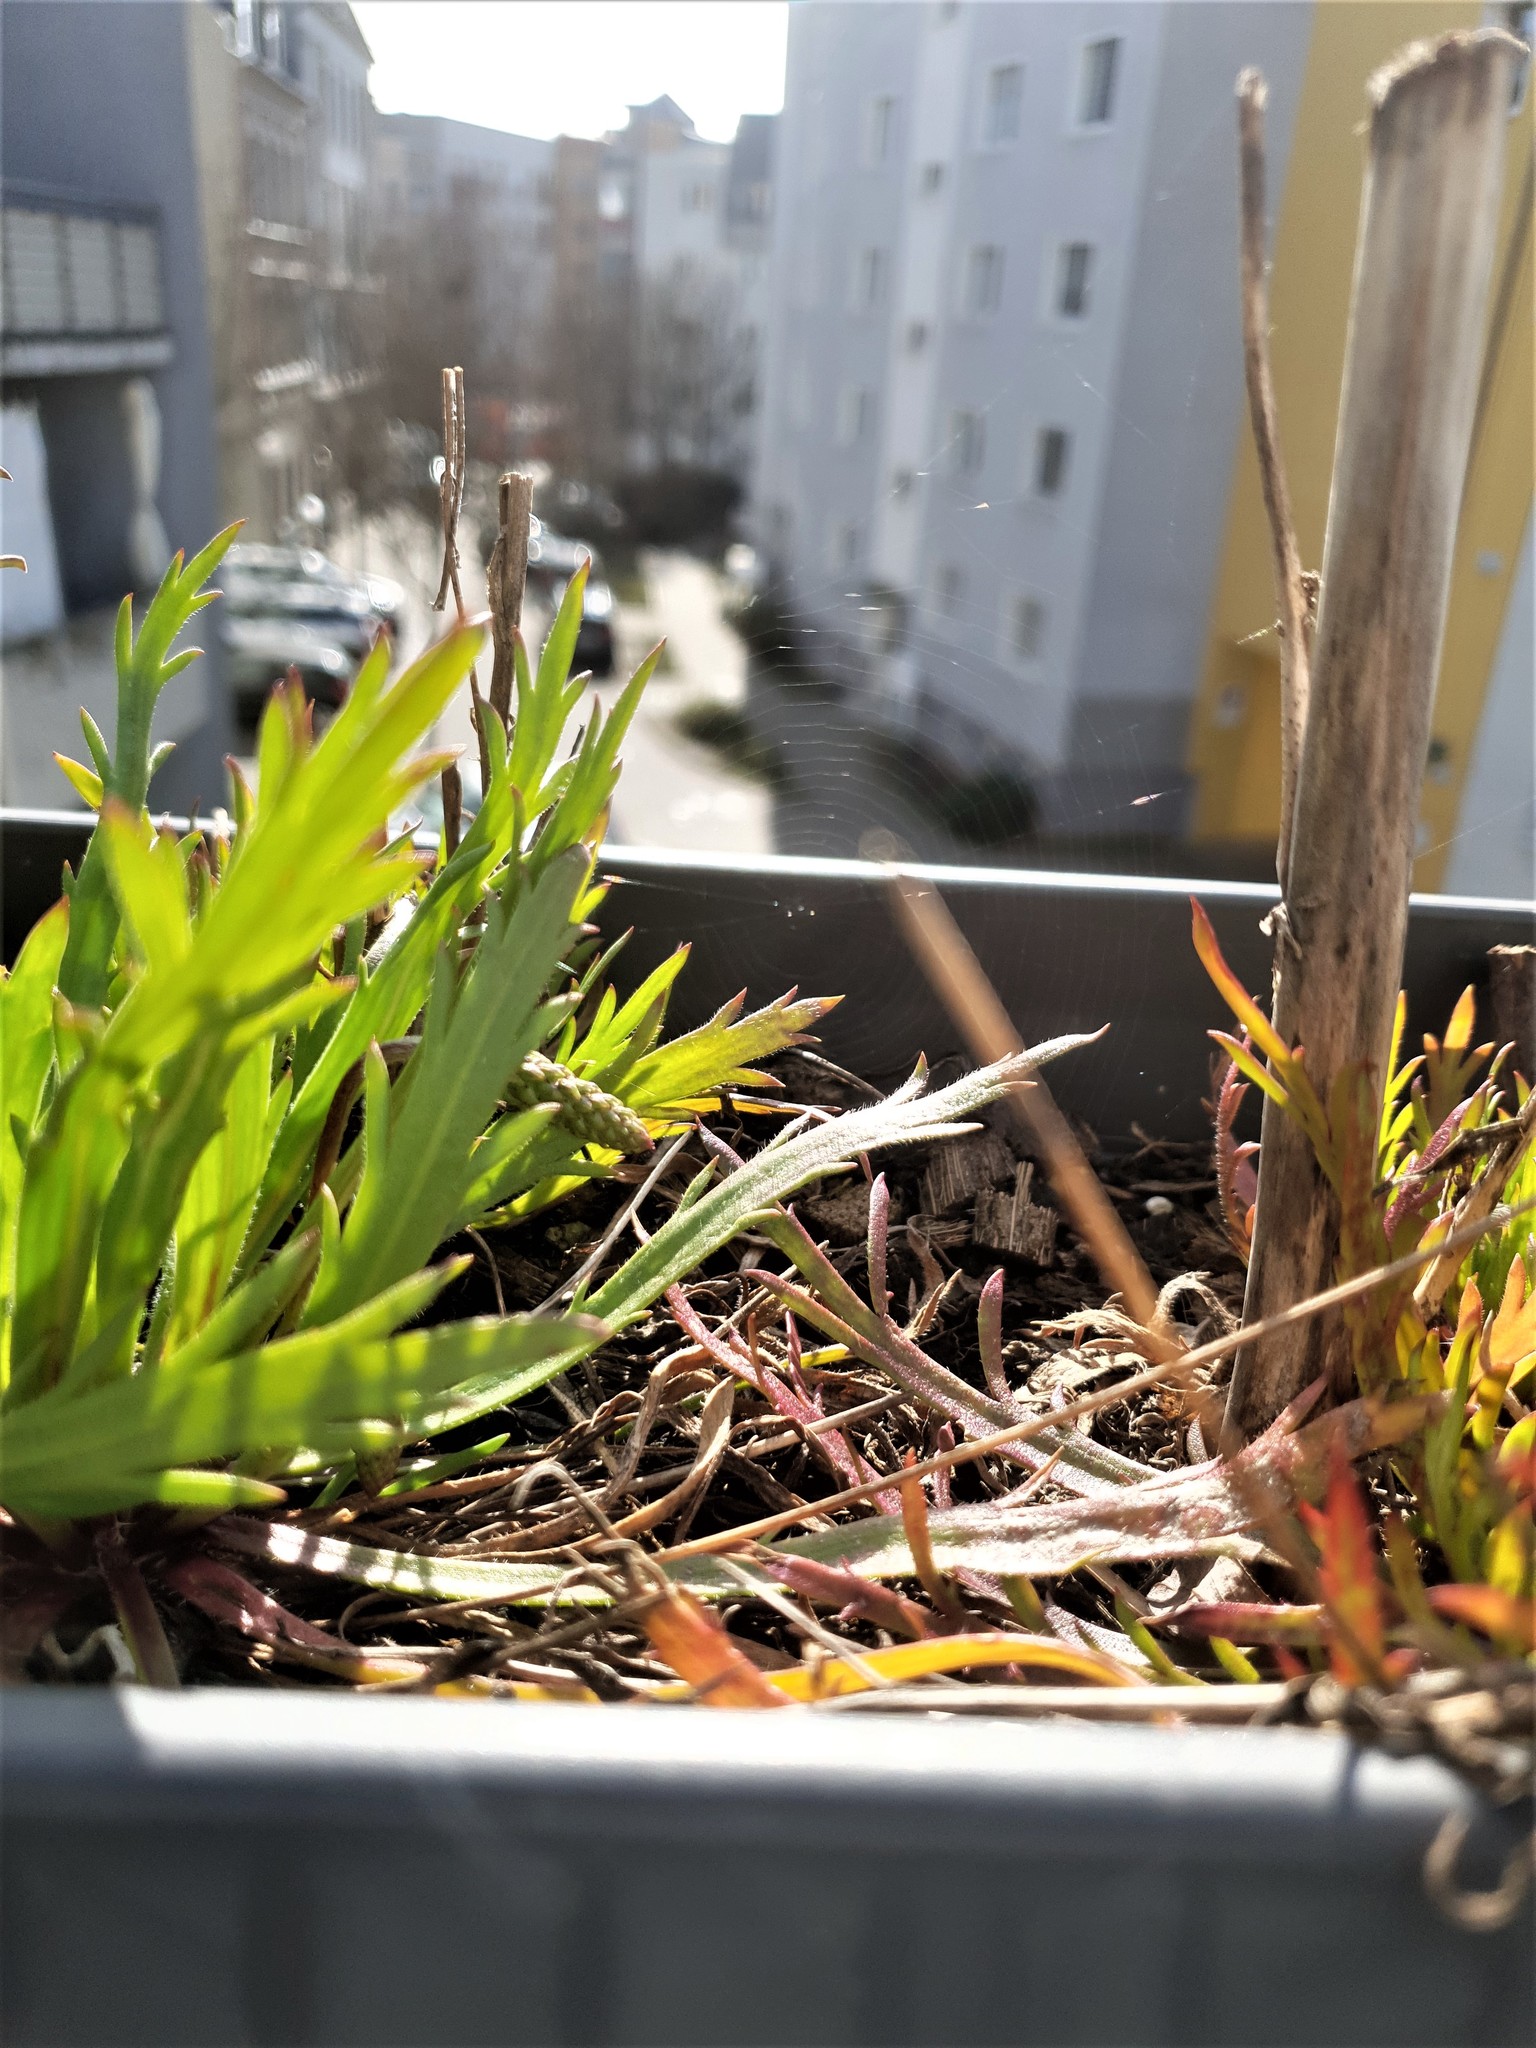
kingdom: Animalia
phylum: Arthropoda
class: Arachnida
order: Araneae
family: Araneidae
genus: Zygiella
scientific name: Zygiella x-notata
